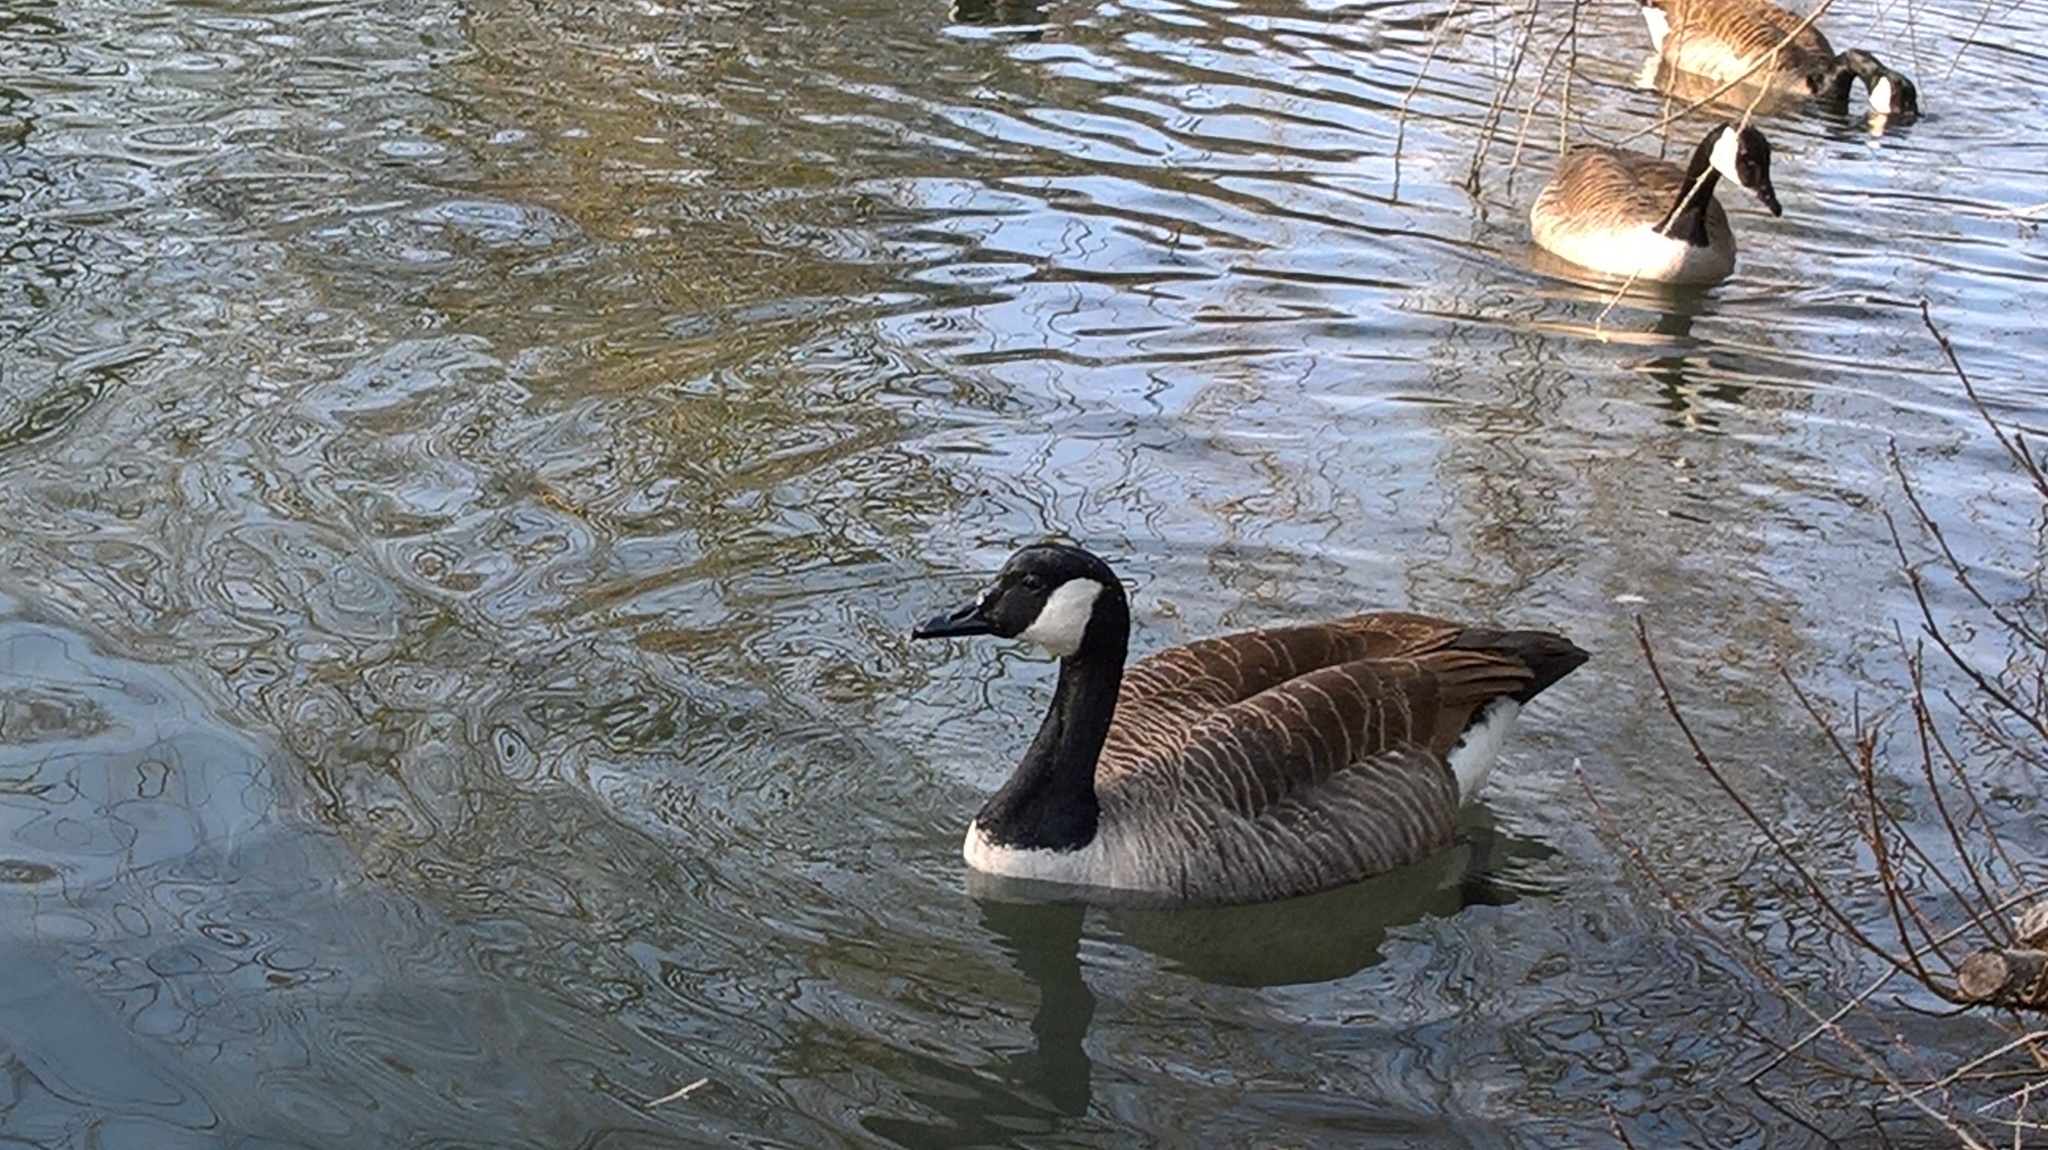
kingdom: Animalia
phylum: Chordata
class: Aves
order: Anseriformes
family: Anatidae
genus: Branta
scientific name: Branta canadensis
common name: Canada goose
